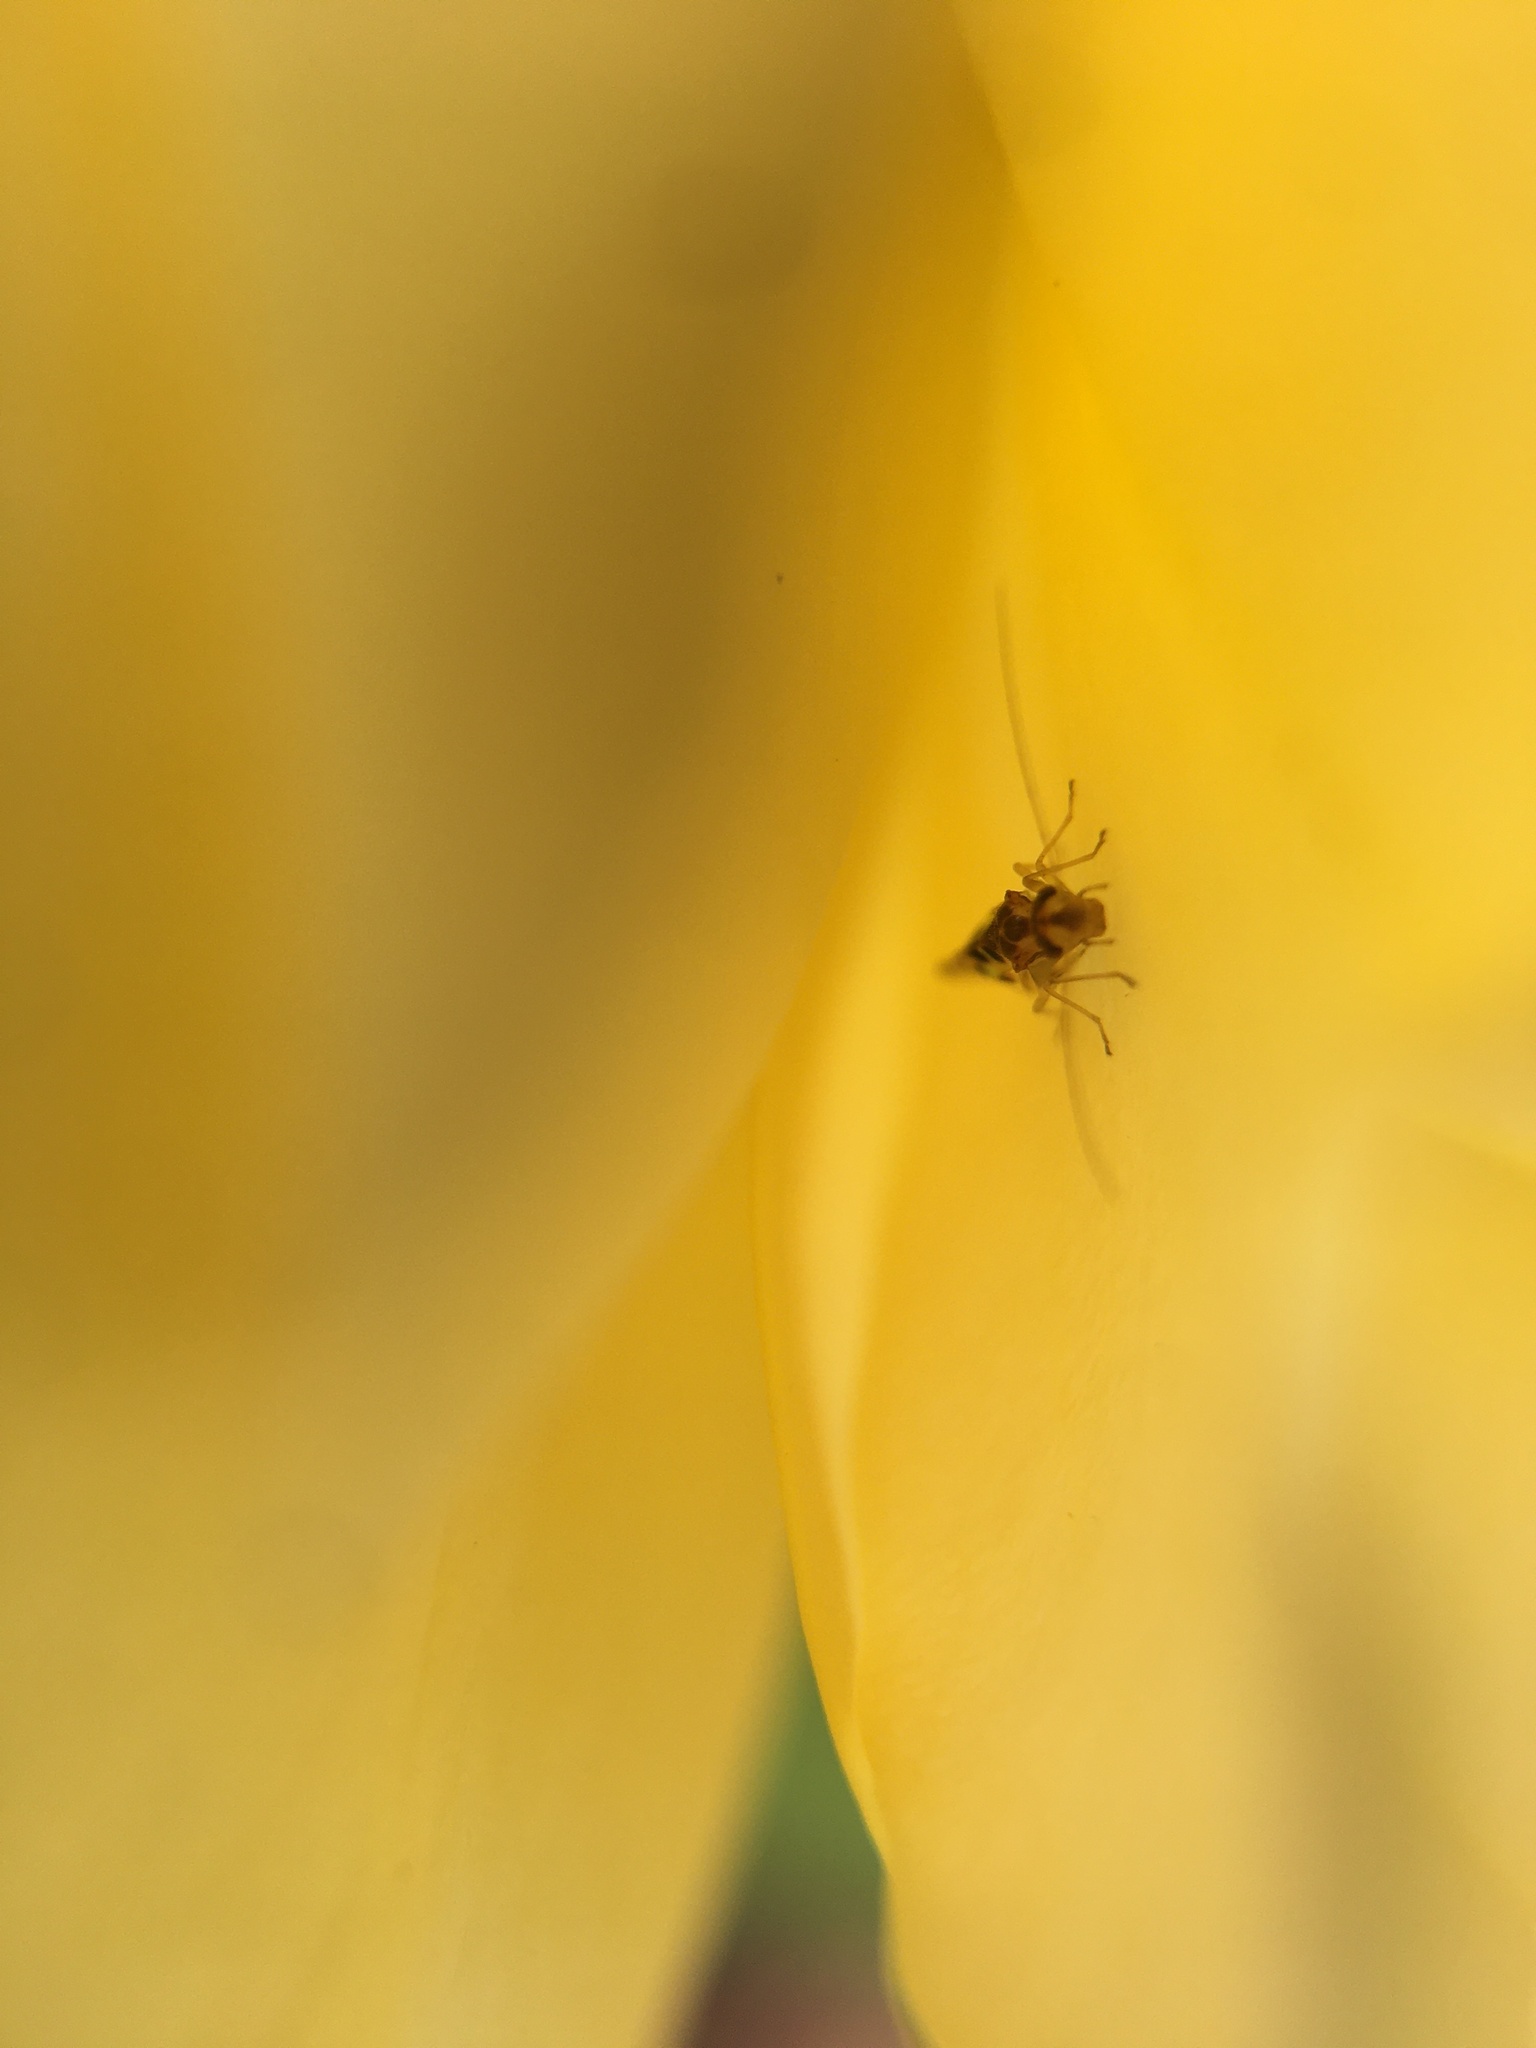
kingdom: Animalia
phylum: Arthropoda
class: Insecta
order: Psocodea
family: Stenopsocidae
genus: Graphopsocus
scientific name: Graphopsocus cruciatus
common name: Lizard bark louse
